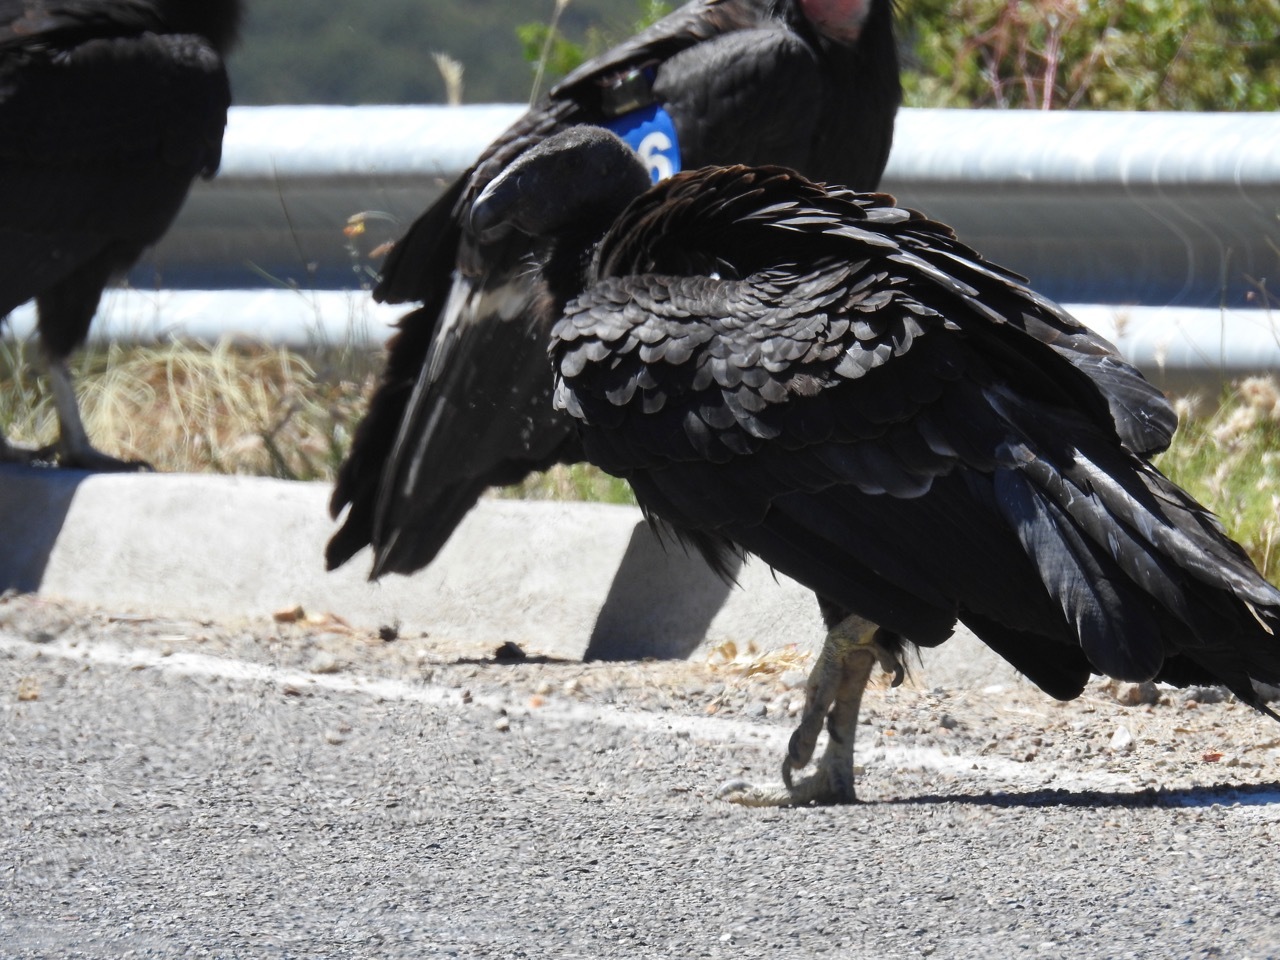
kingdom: Animalia
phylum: Chordata
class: Aves
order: Accipitriformes
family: Cathartidae
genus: Gymnogyps
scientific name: Gymnogyps californianus
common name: California condor
